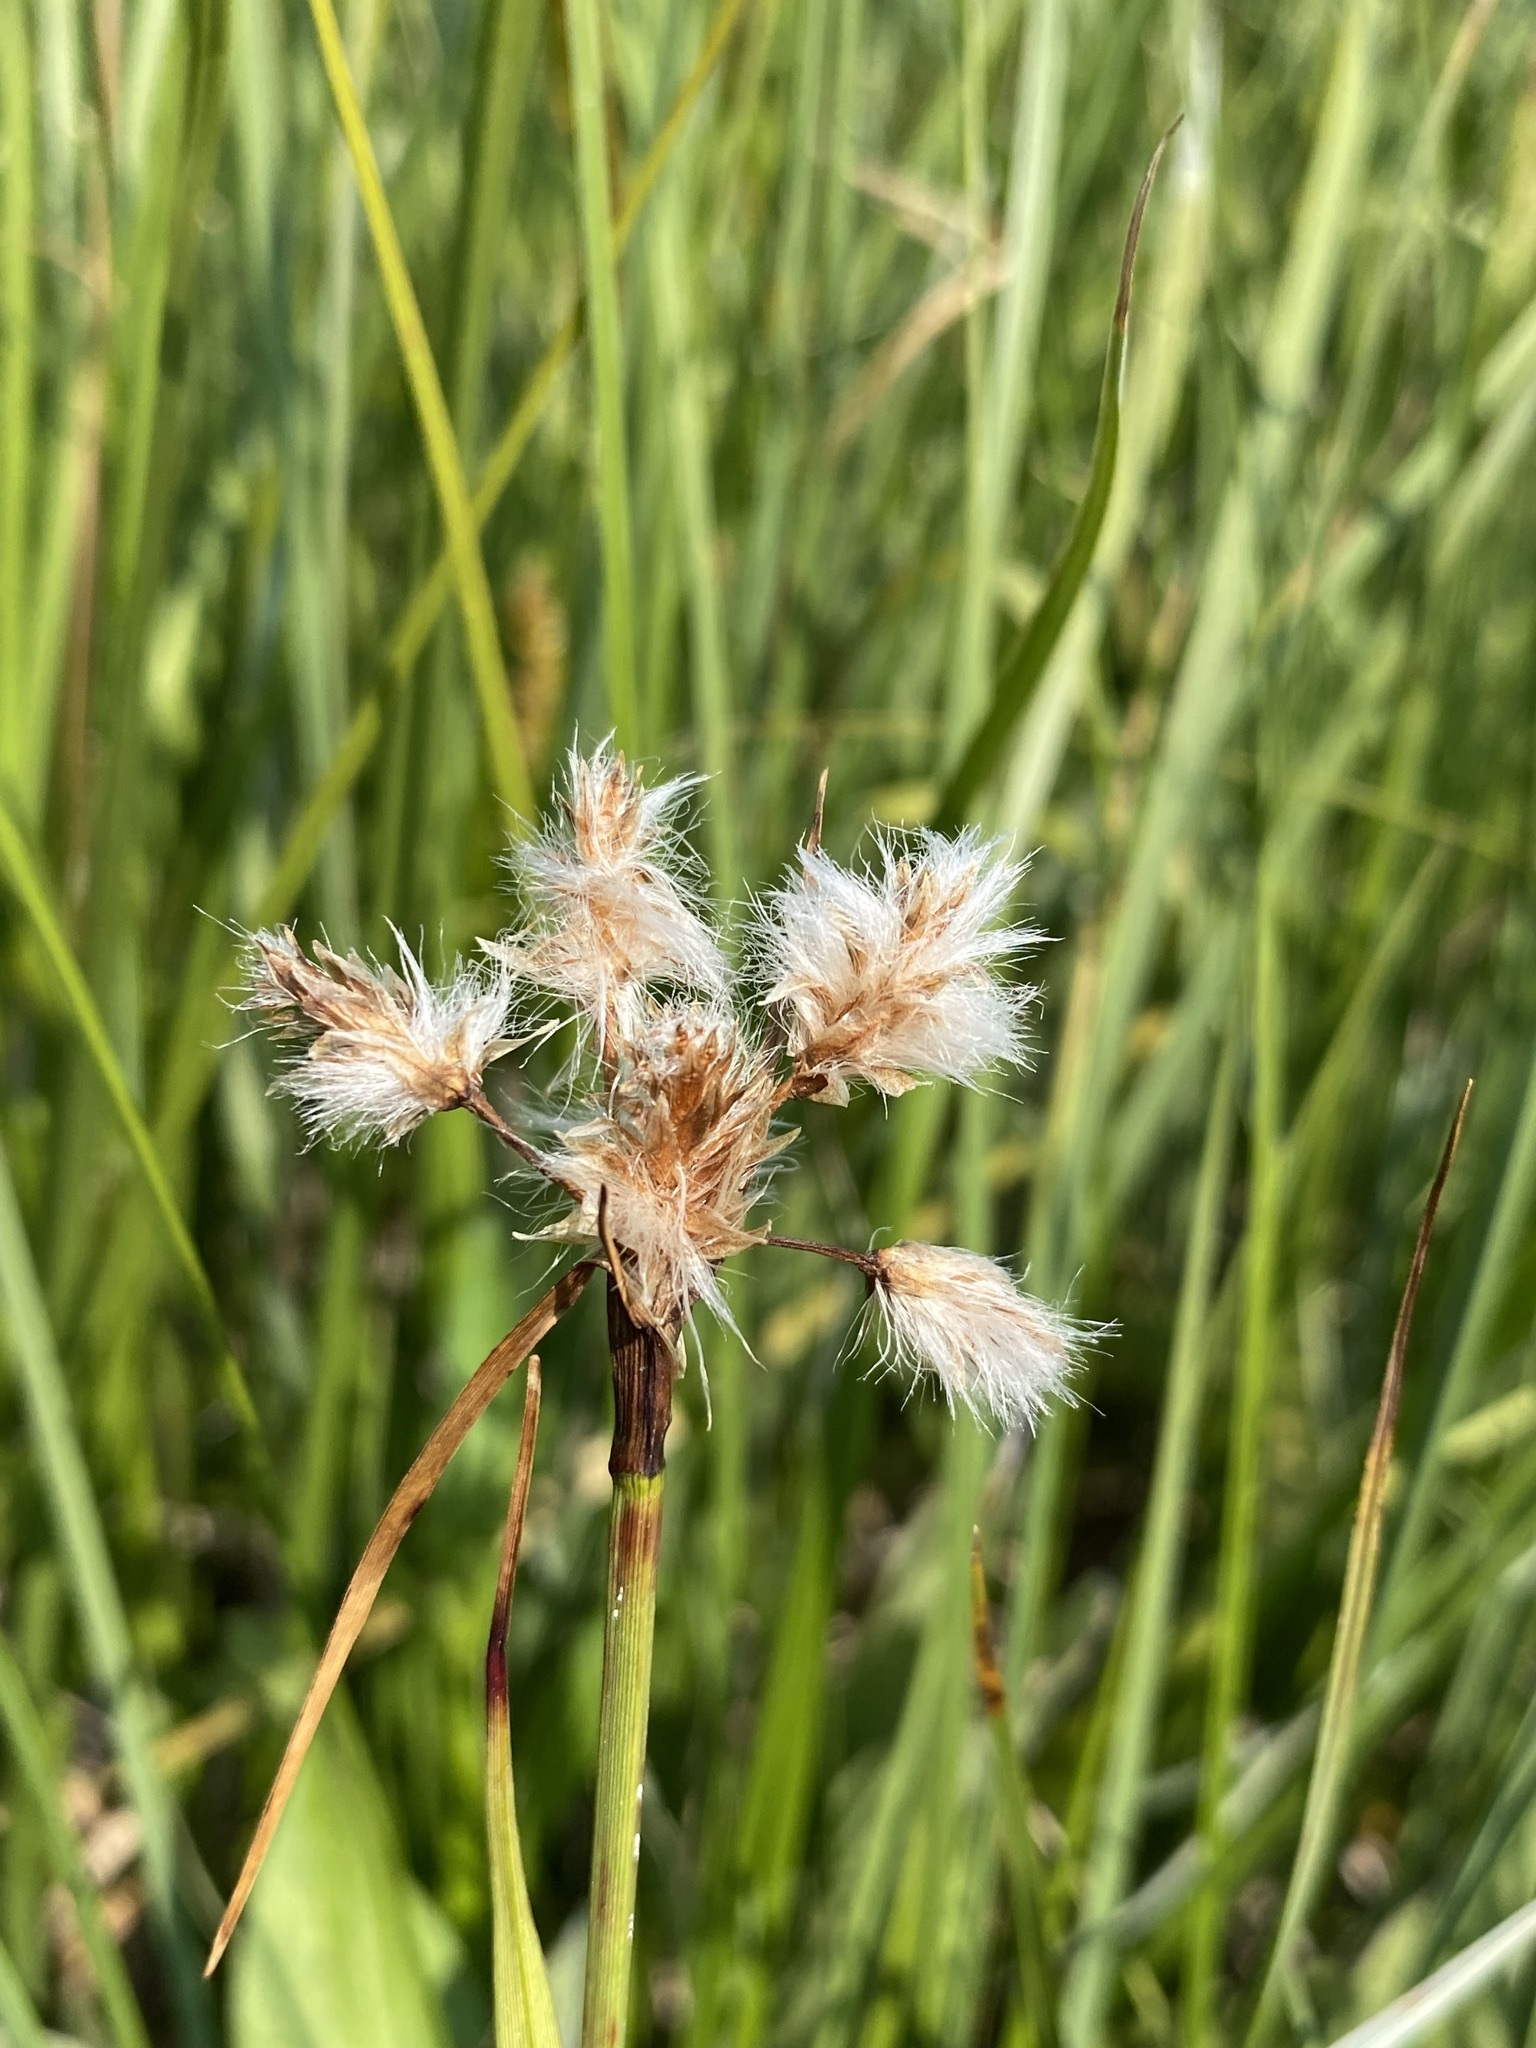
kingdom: Plantae
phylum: Tracheophyta
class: Liliopsida
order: Poales
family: Cyperaceae
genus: Eriophorum
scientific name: Eriophorum angustifolium
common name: Common cottongrass
